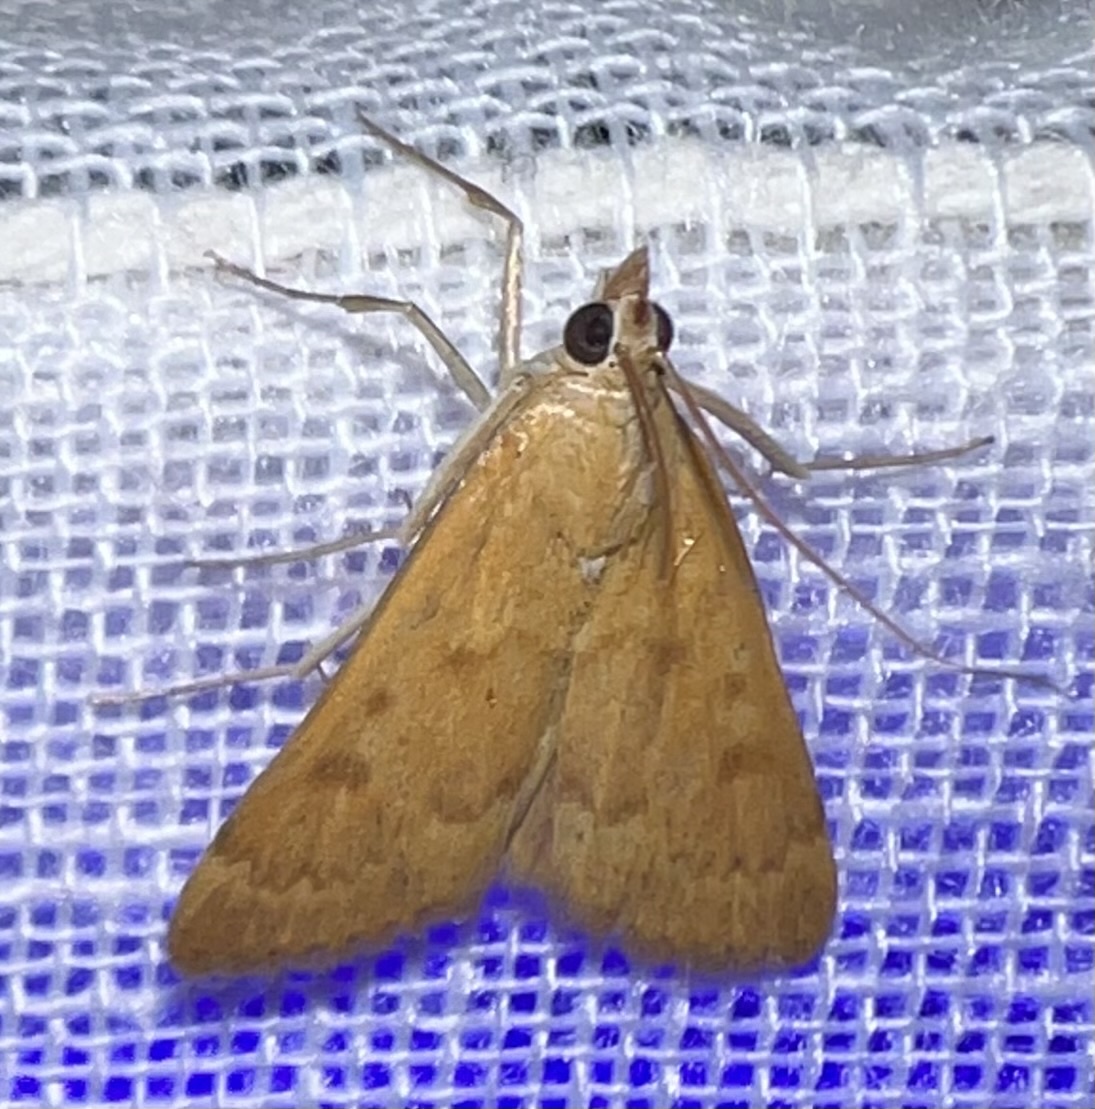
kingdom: Animalia
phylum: Arthropoda
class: Insecta
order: Lepidoptera
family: Crambidae
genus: Achyra
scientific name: Achyra rantalis
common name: Garden webworm
